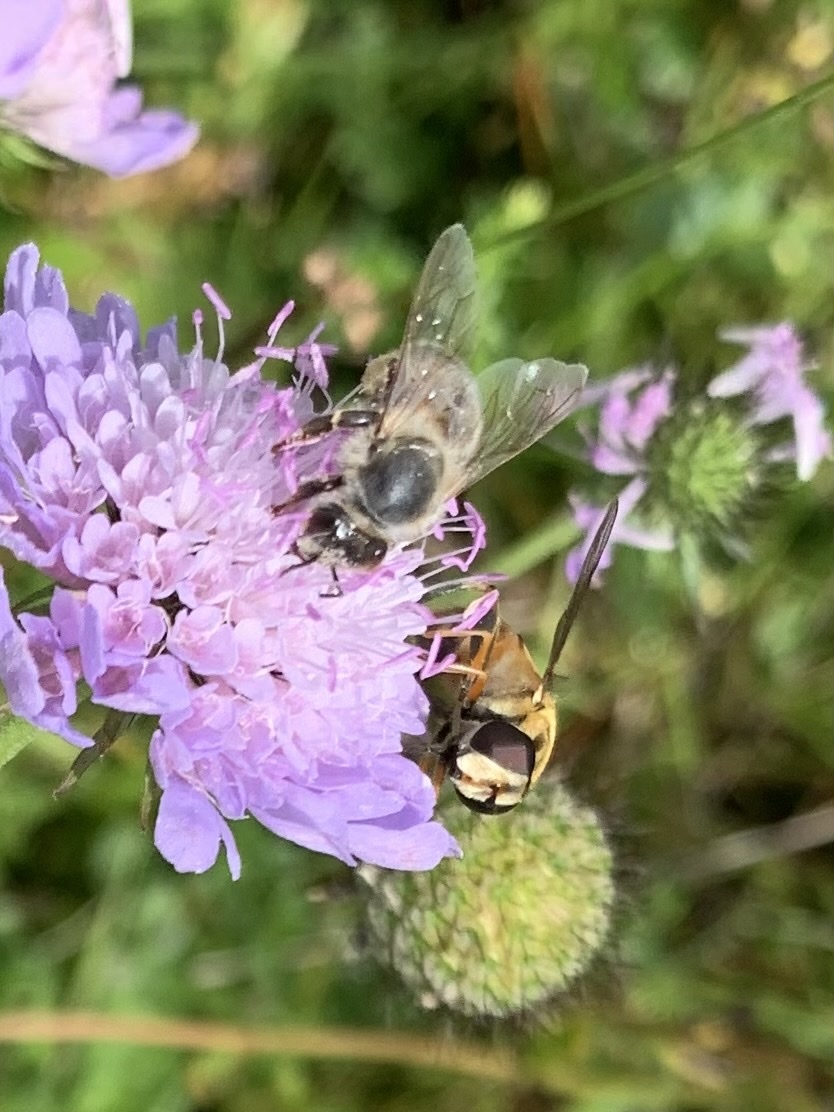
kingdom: Animalia
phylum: Arthropoda
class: Insecta
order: Hymenoptera
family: Apidae
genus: Apis
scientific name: Apis mellifera
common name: Honey bee
